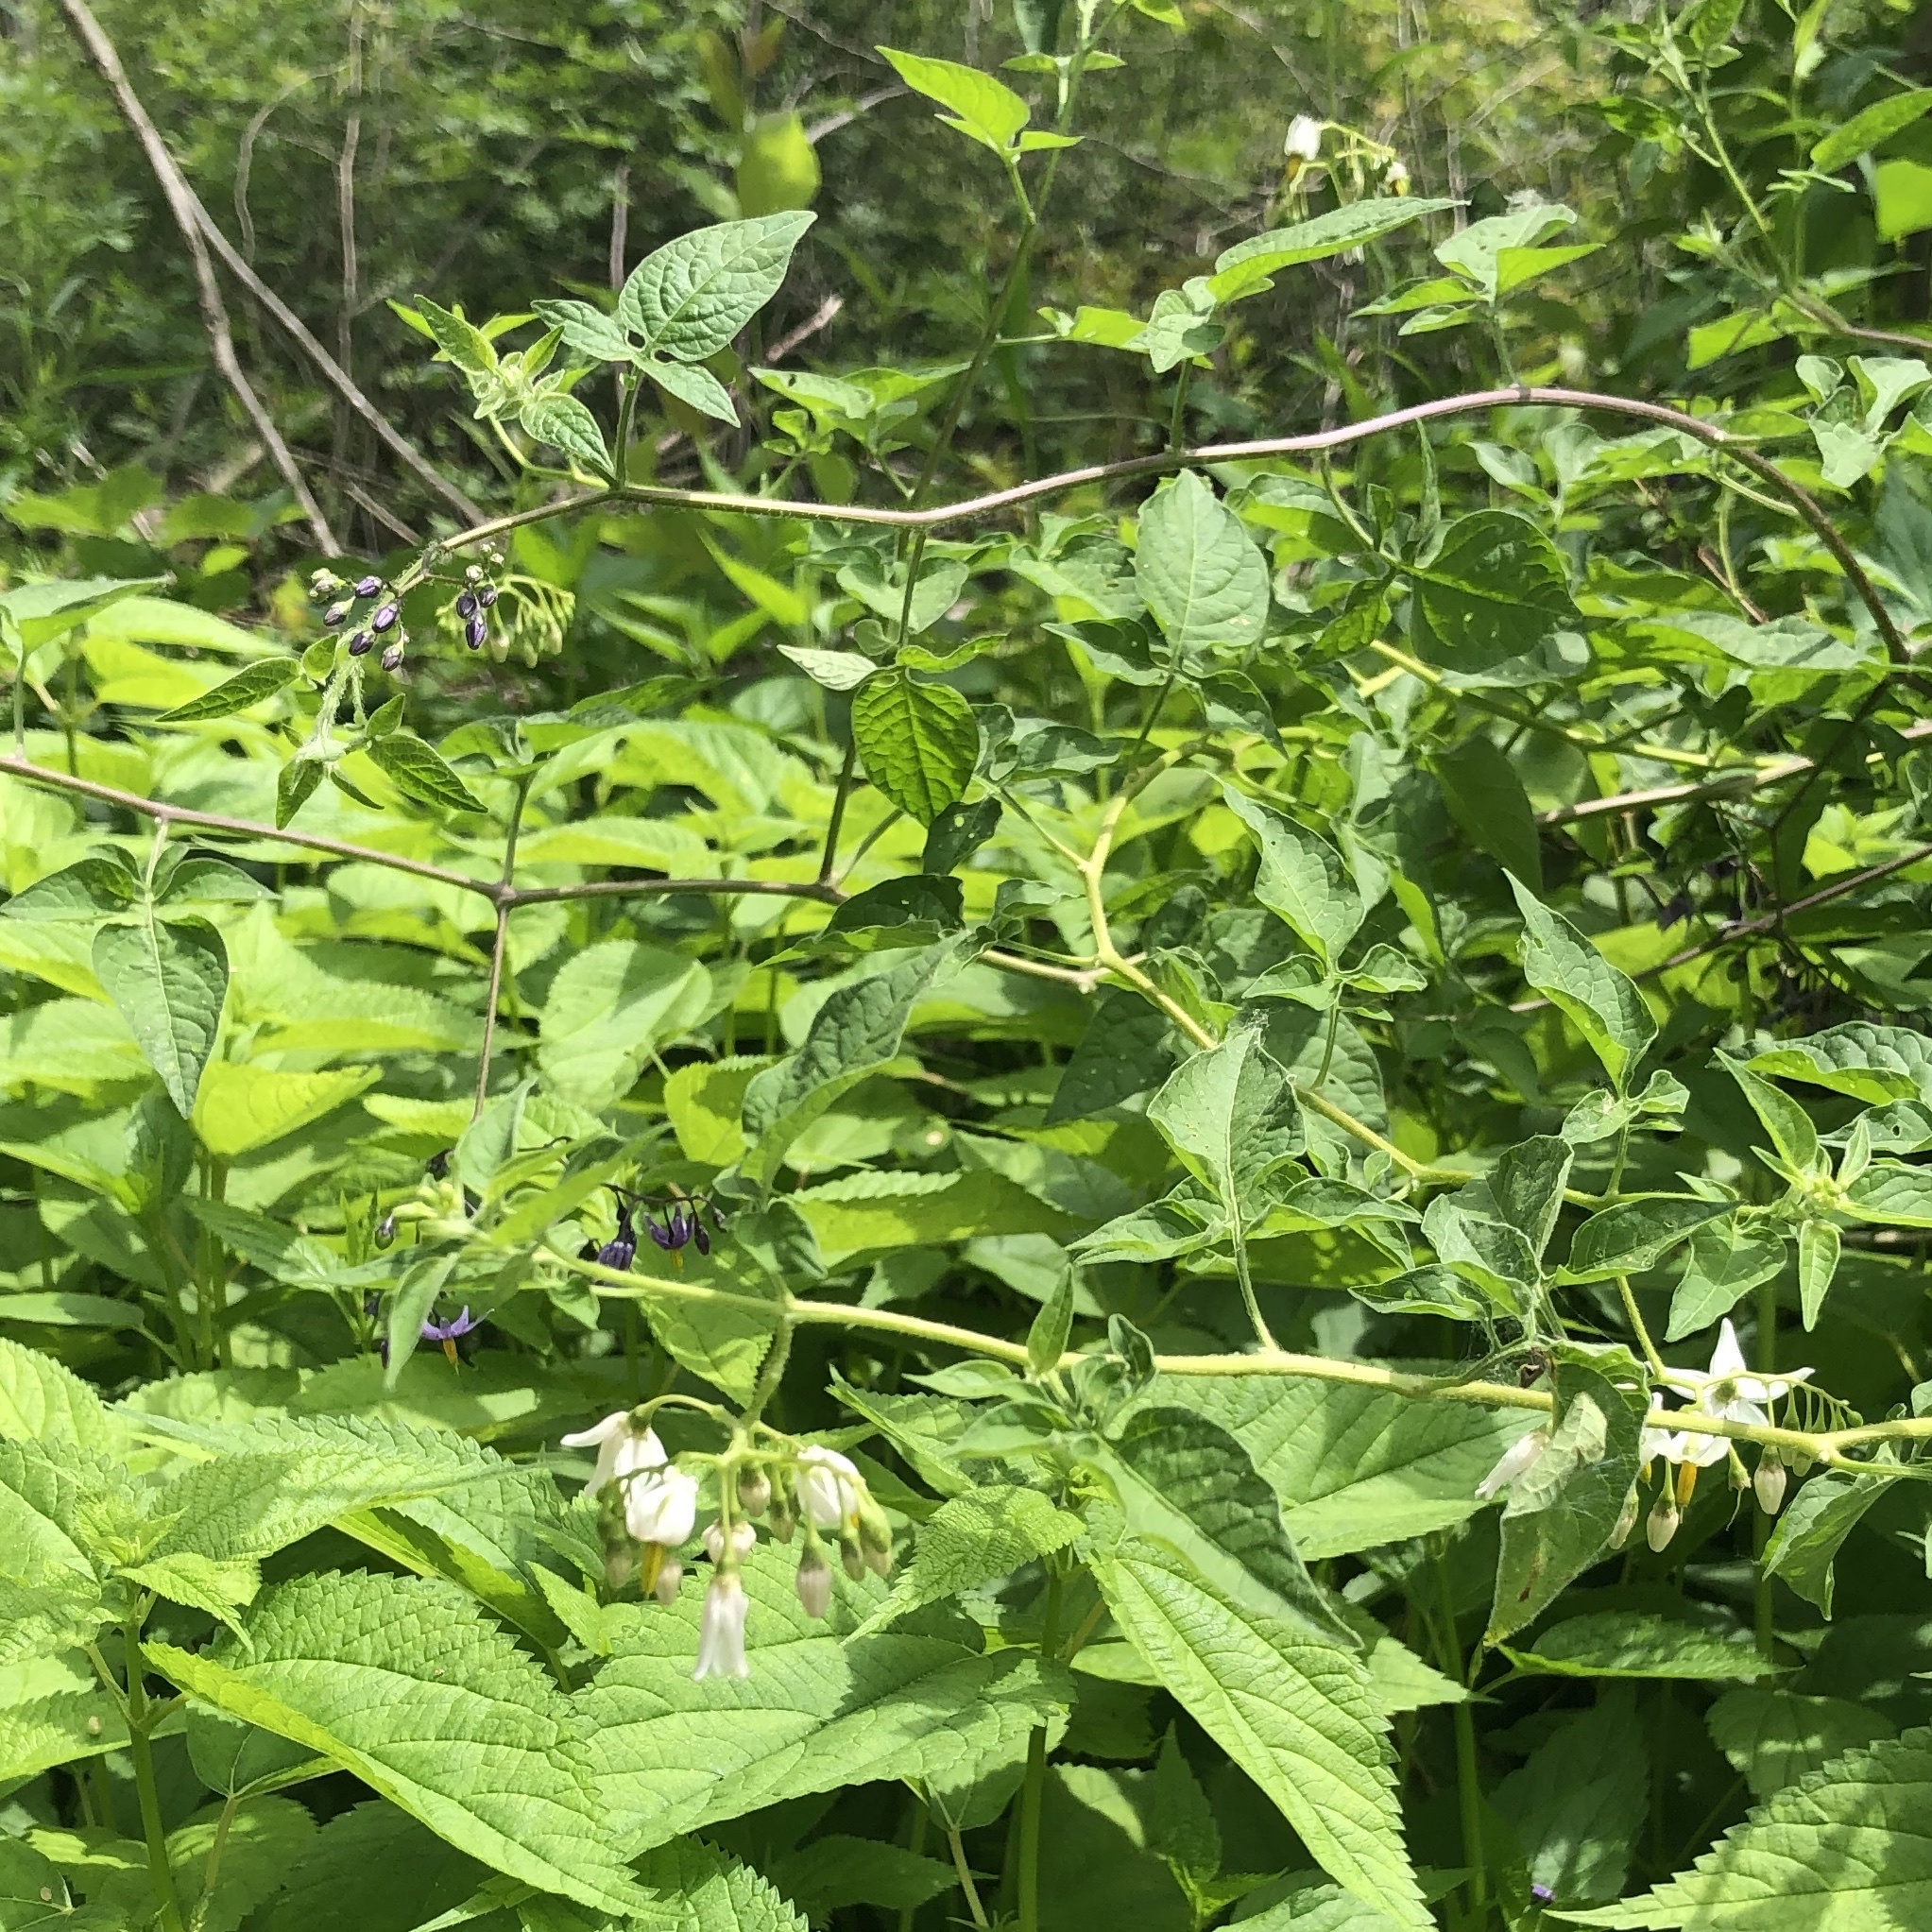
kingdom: Plantae
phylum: Tracheophyta
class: Magnoliopsida
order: Solanales
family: Solanaceae
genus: Solanum
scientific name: Solanum dulcamara
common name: Climbing nightshade
